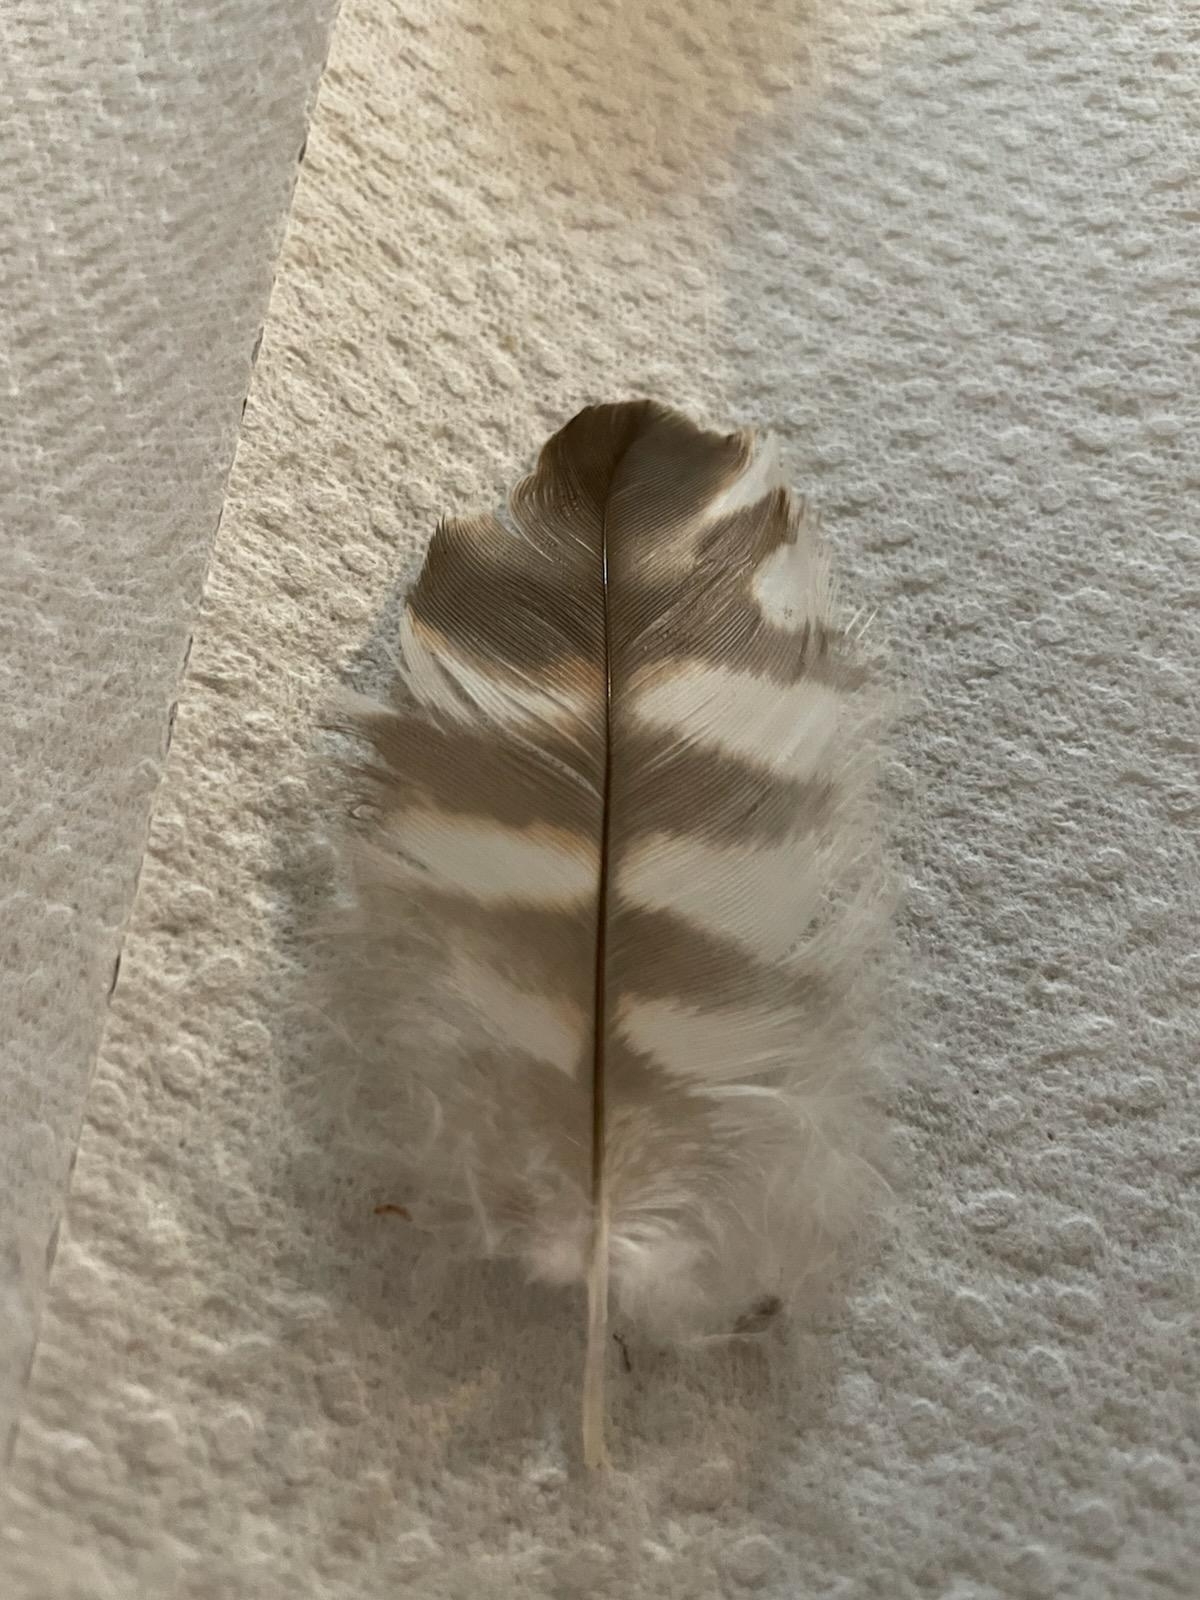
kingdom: Animalia
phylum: Chordata
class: Aves
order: Accipitriformes
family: Accipitridae
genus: Buteo
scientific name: Buteo lineatus
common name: Red-shouldered hawk
